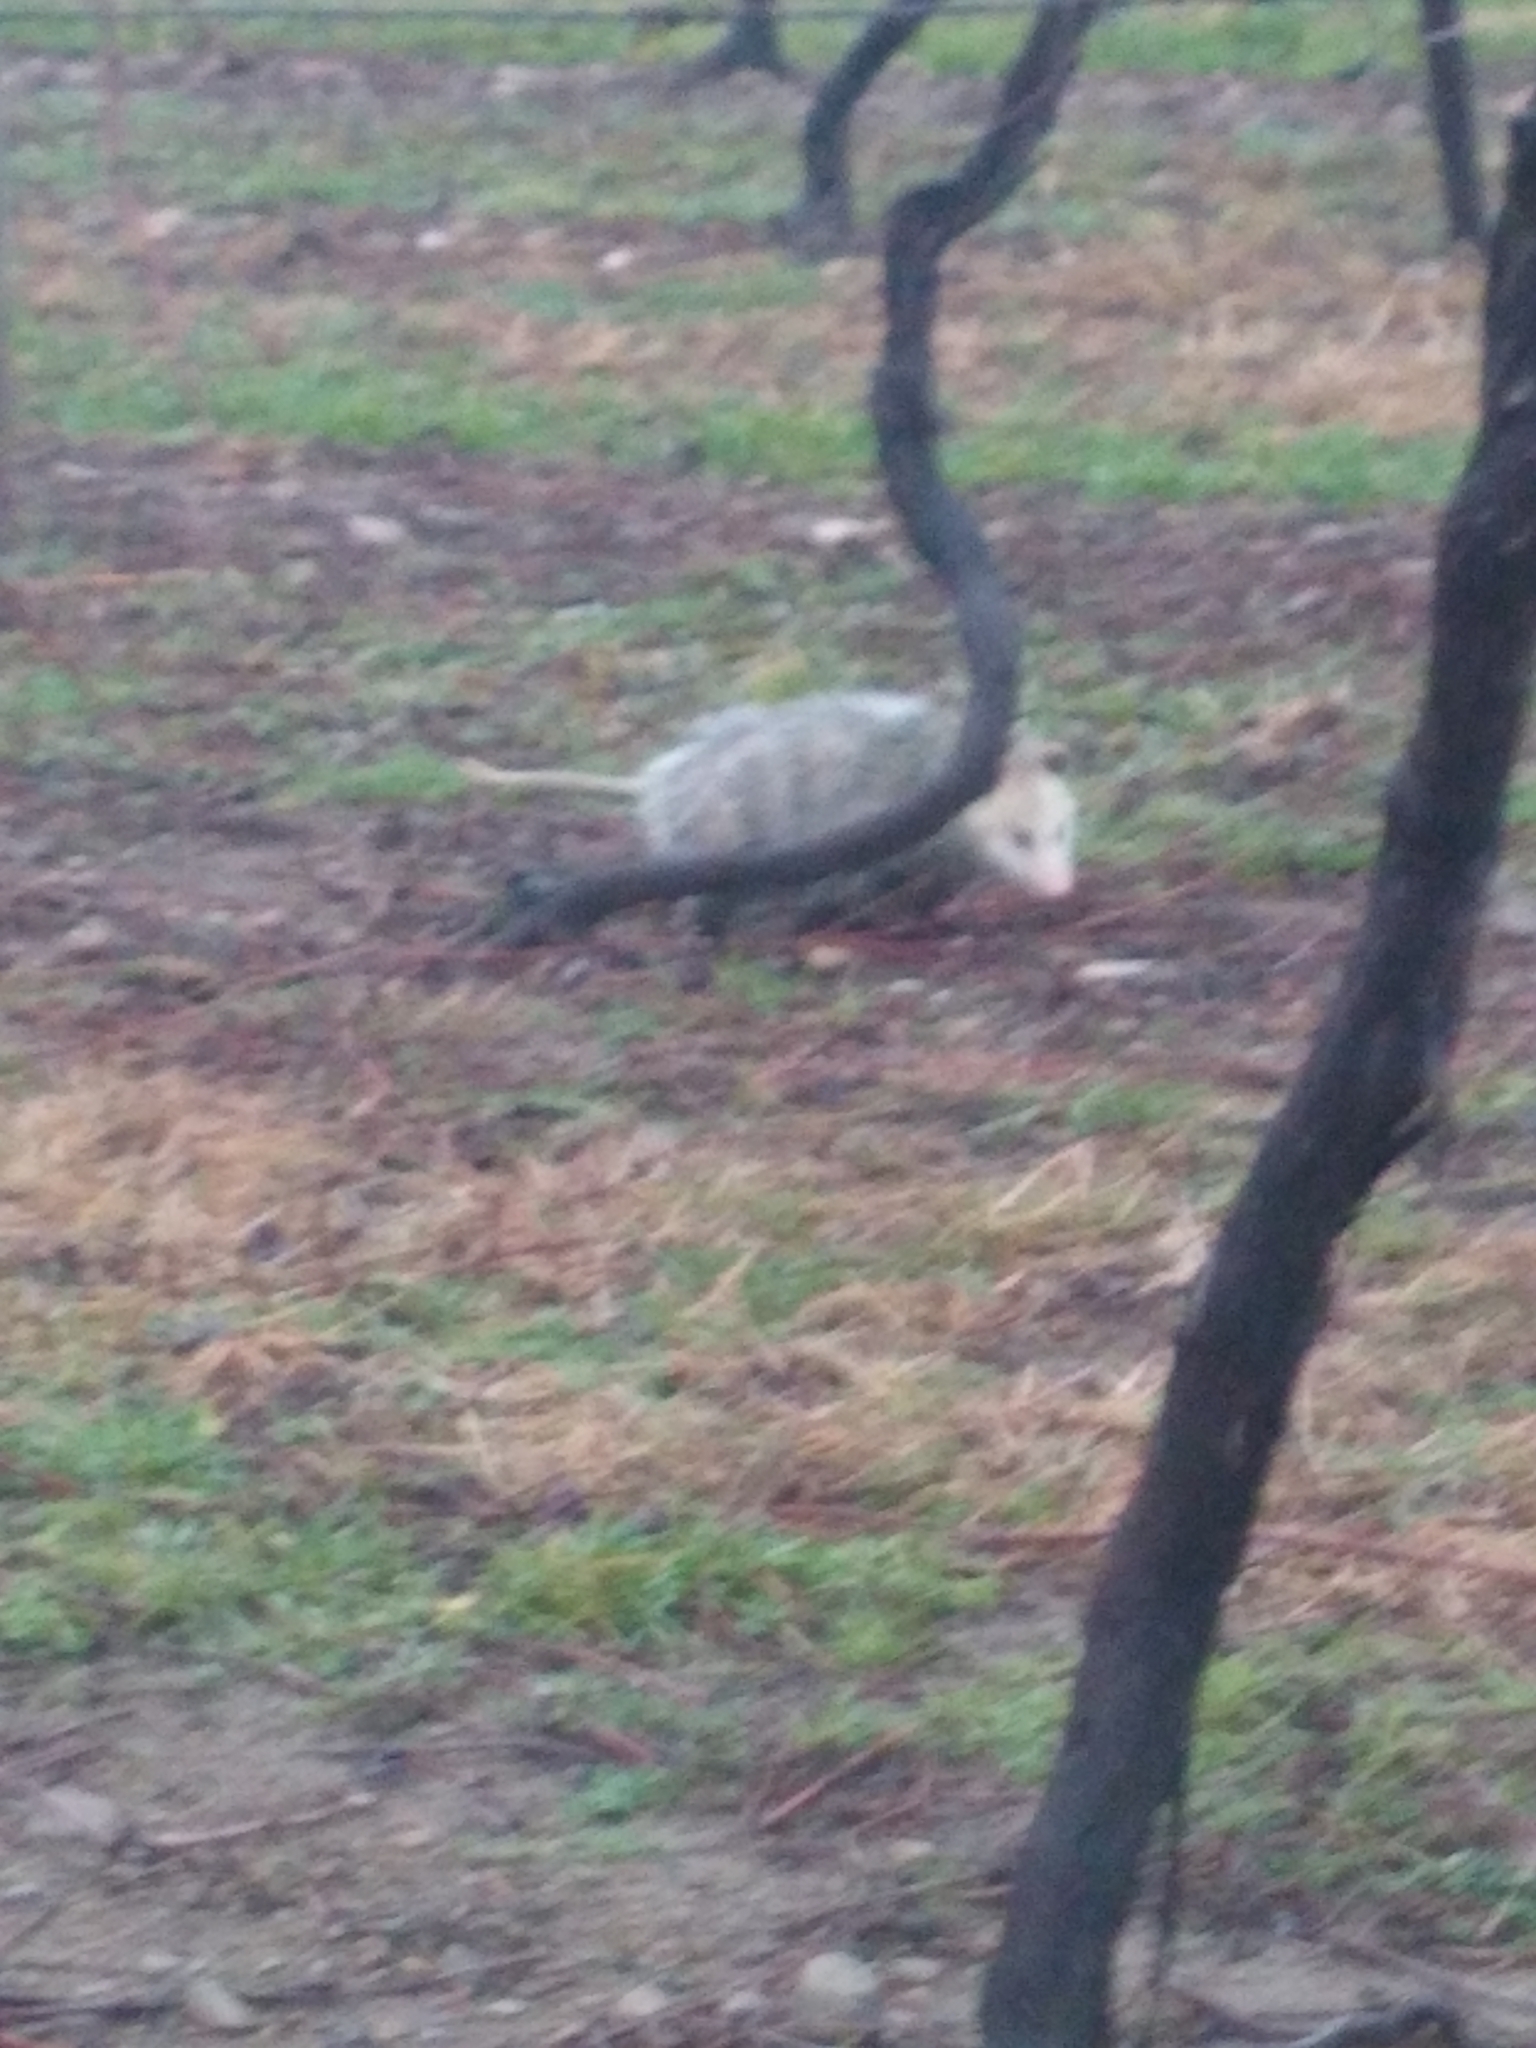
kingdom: Animalia
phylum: Chordata
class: Mammalia
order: Didelphimorphia
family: Didelphidae
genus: Didelphis
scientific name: Didelphis virginiana
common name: Virginia opossum
